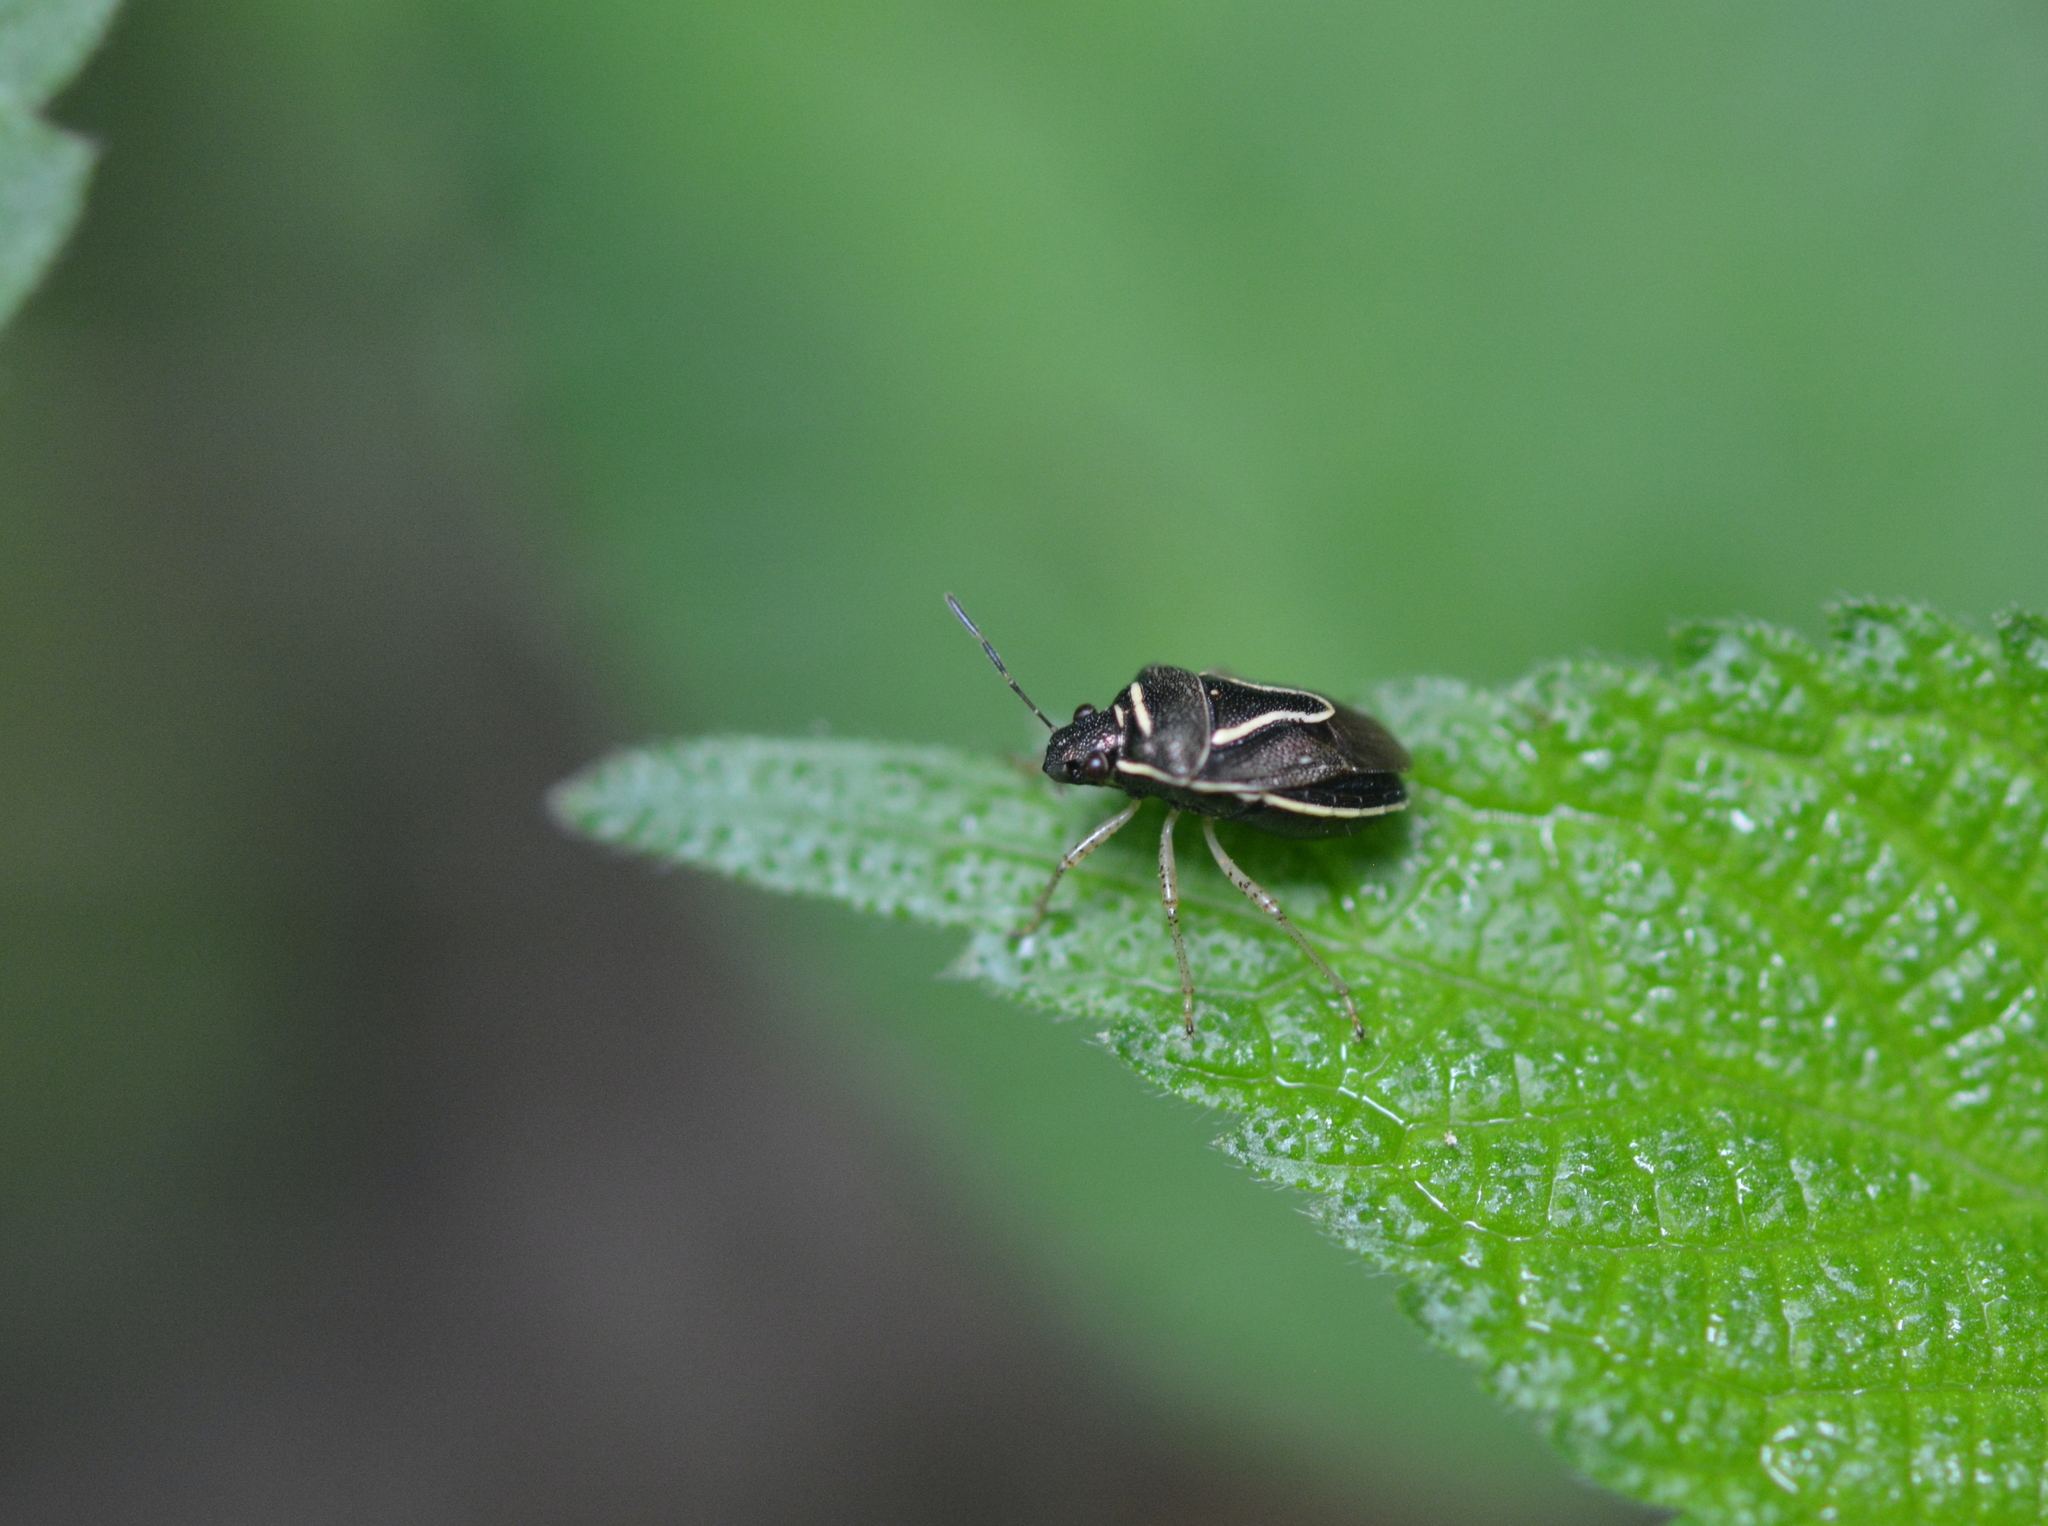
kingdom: Animalia
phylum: Arthropoda
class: Insecta
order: Hemiptera
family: Pentatomidae
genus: Mormidea
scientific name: Mormidea lugens
